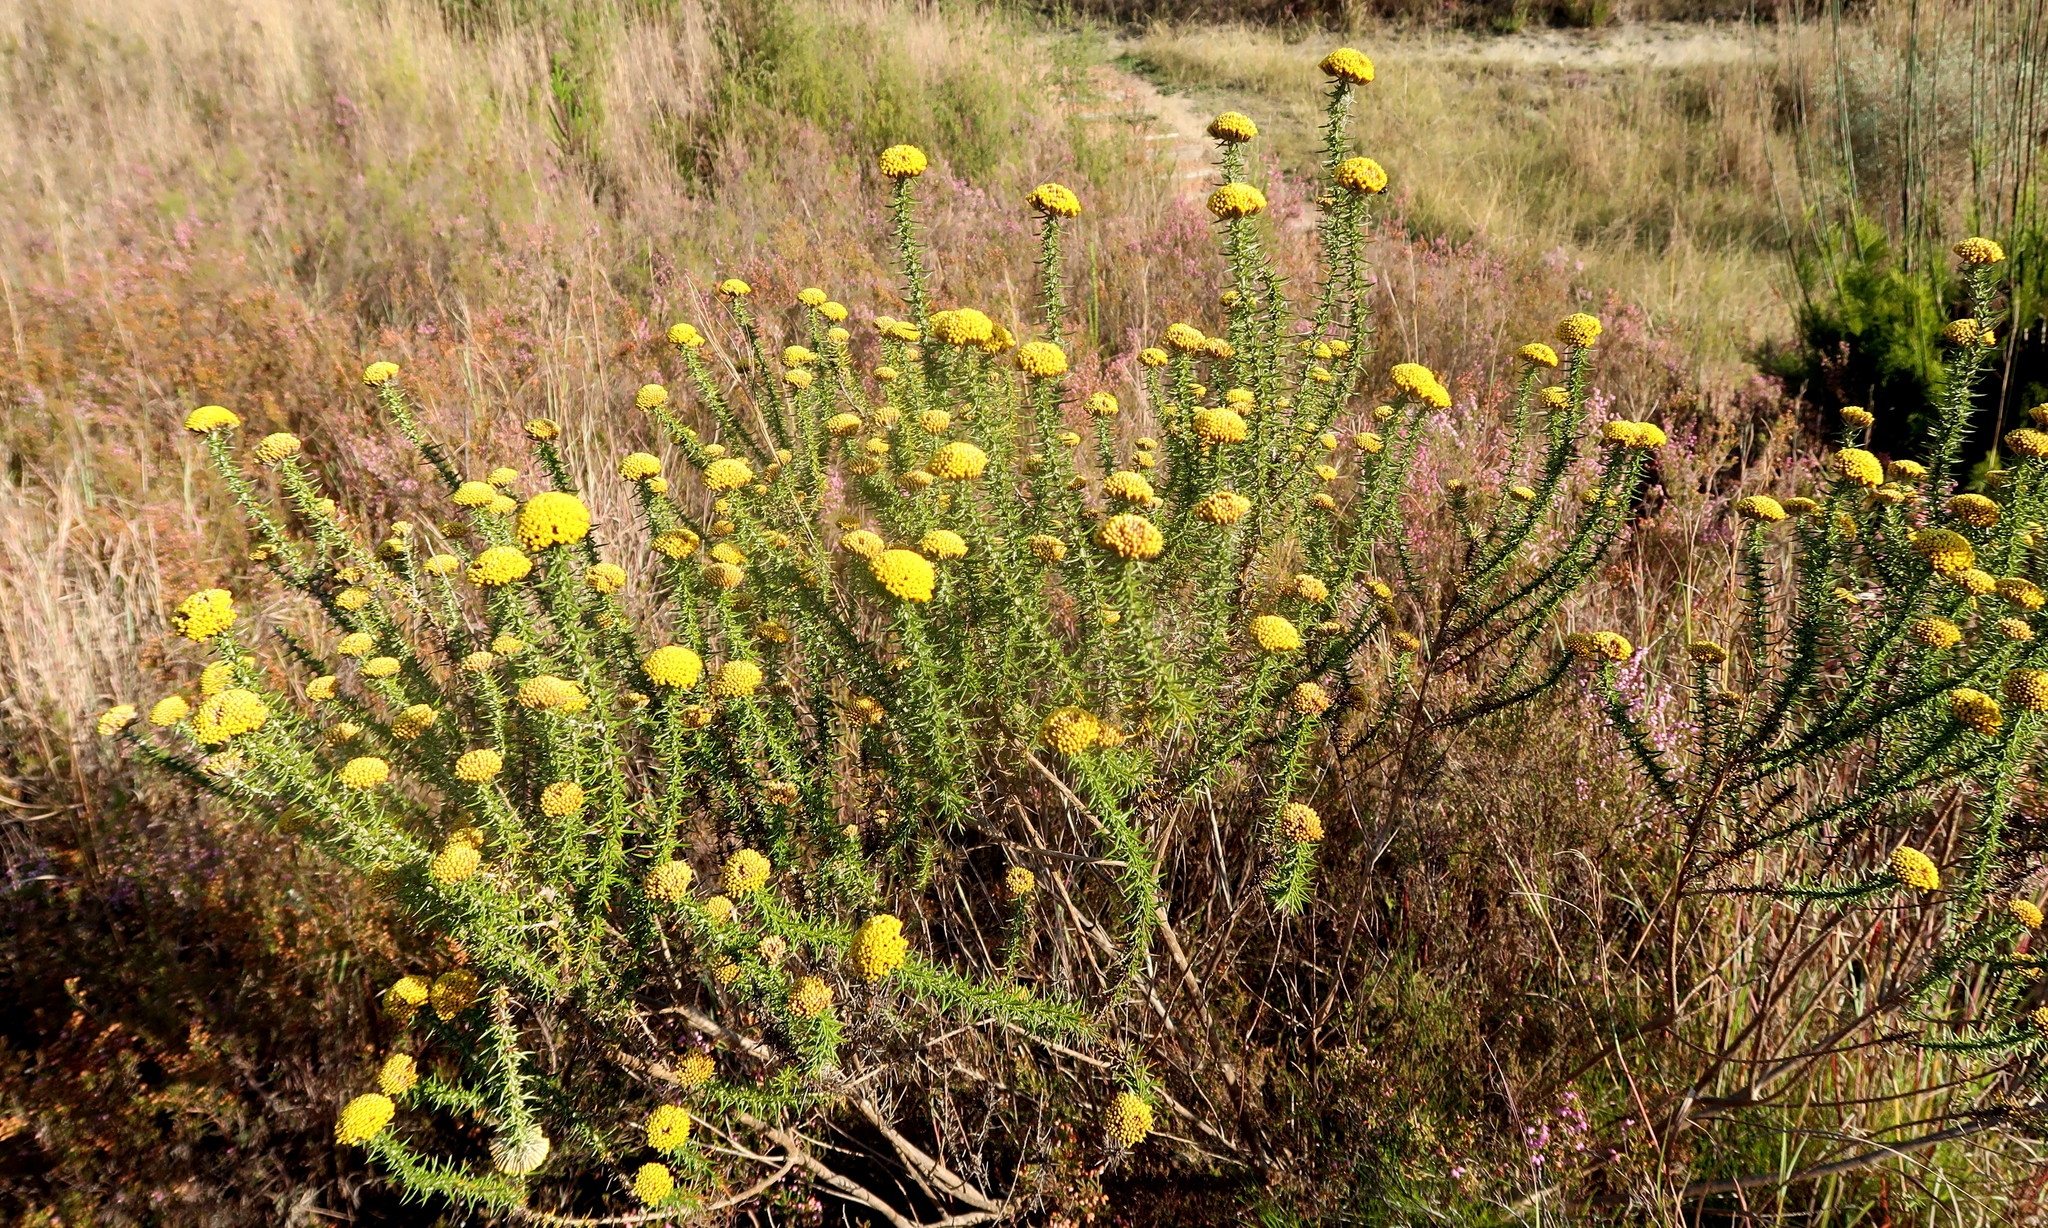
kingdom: Plantae
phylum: Tracheophyta
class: Magnoliopsida
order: Asterales
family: Asteraceae
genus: Metalasia
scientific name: Metalasia aurea
